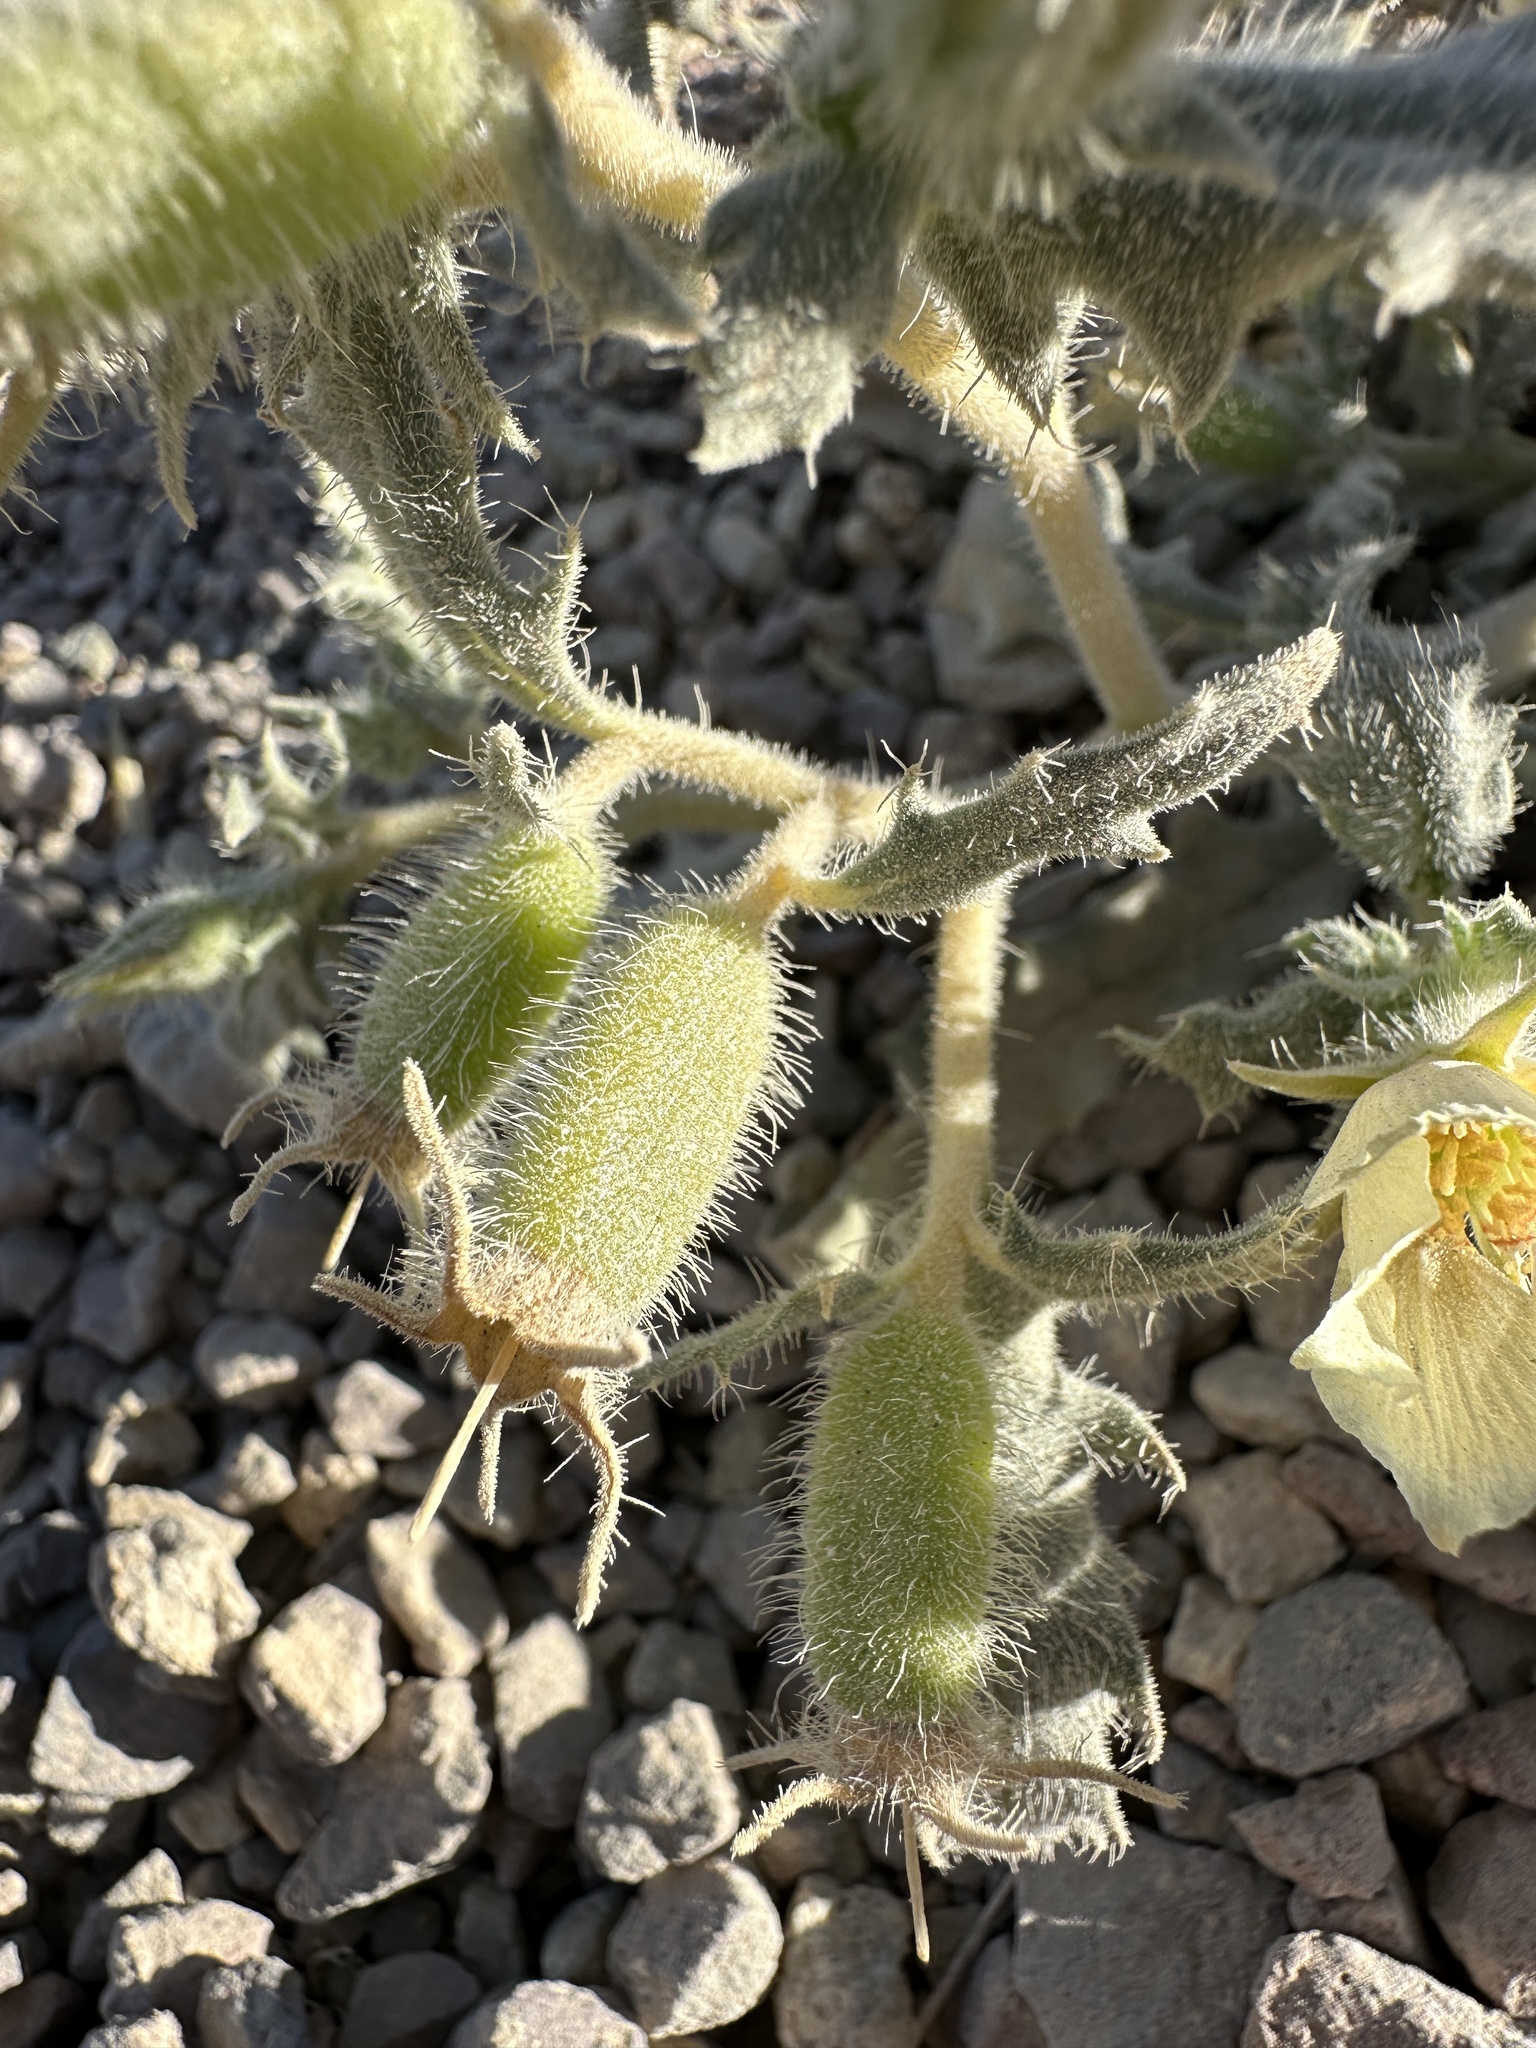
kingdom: Plantae
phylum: Tracheophyta
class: Magnoliopsida
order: Cornales
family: Loasaceae
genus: Mentzelia
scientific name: Mentzelia tridentata
